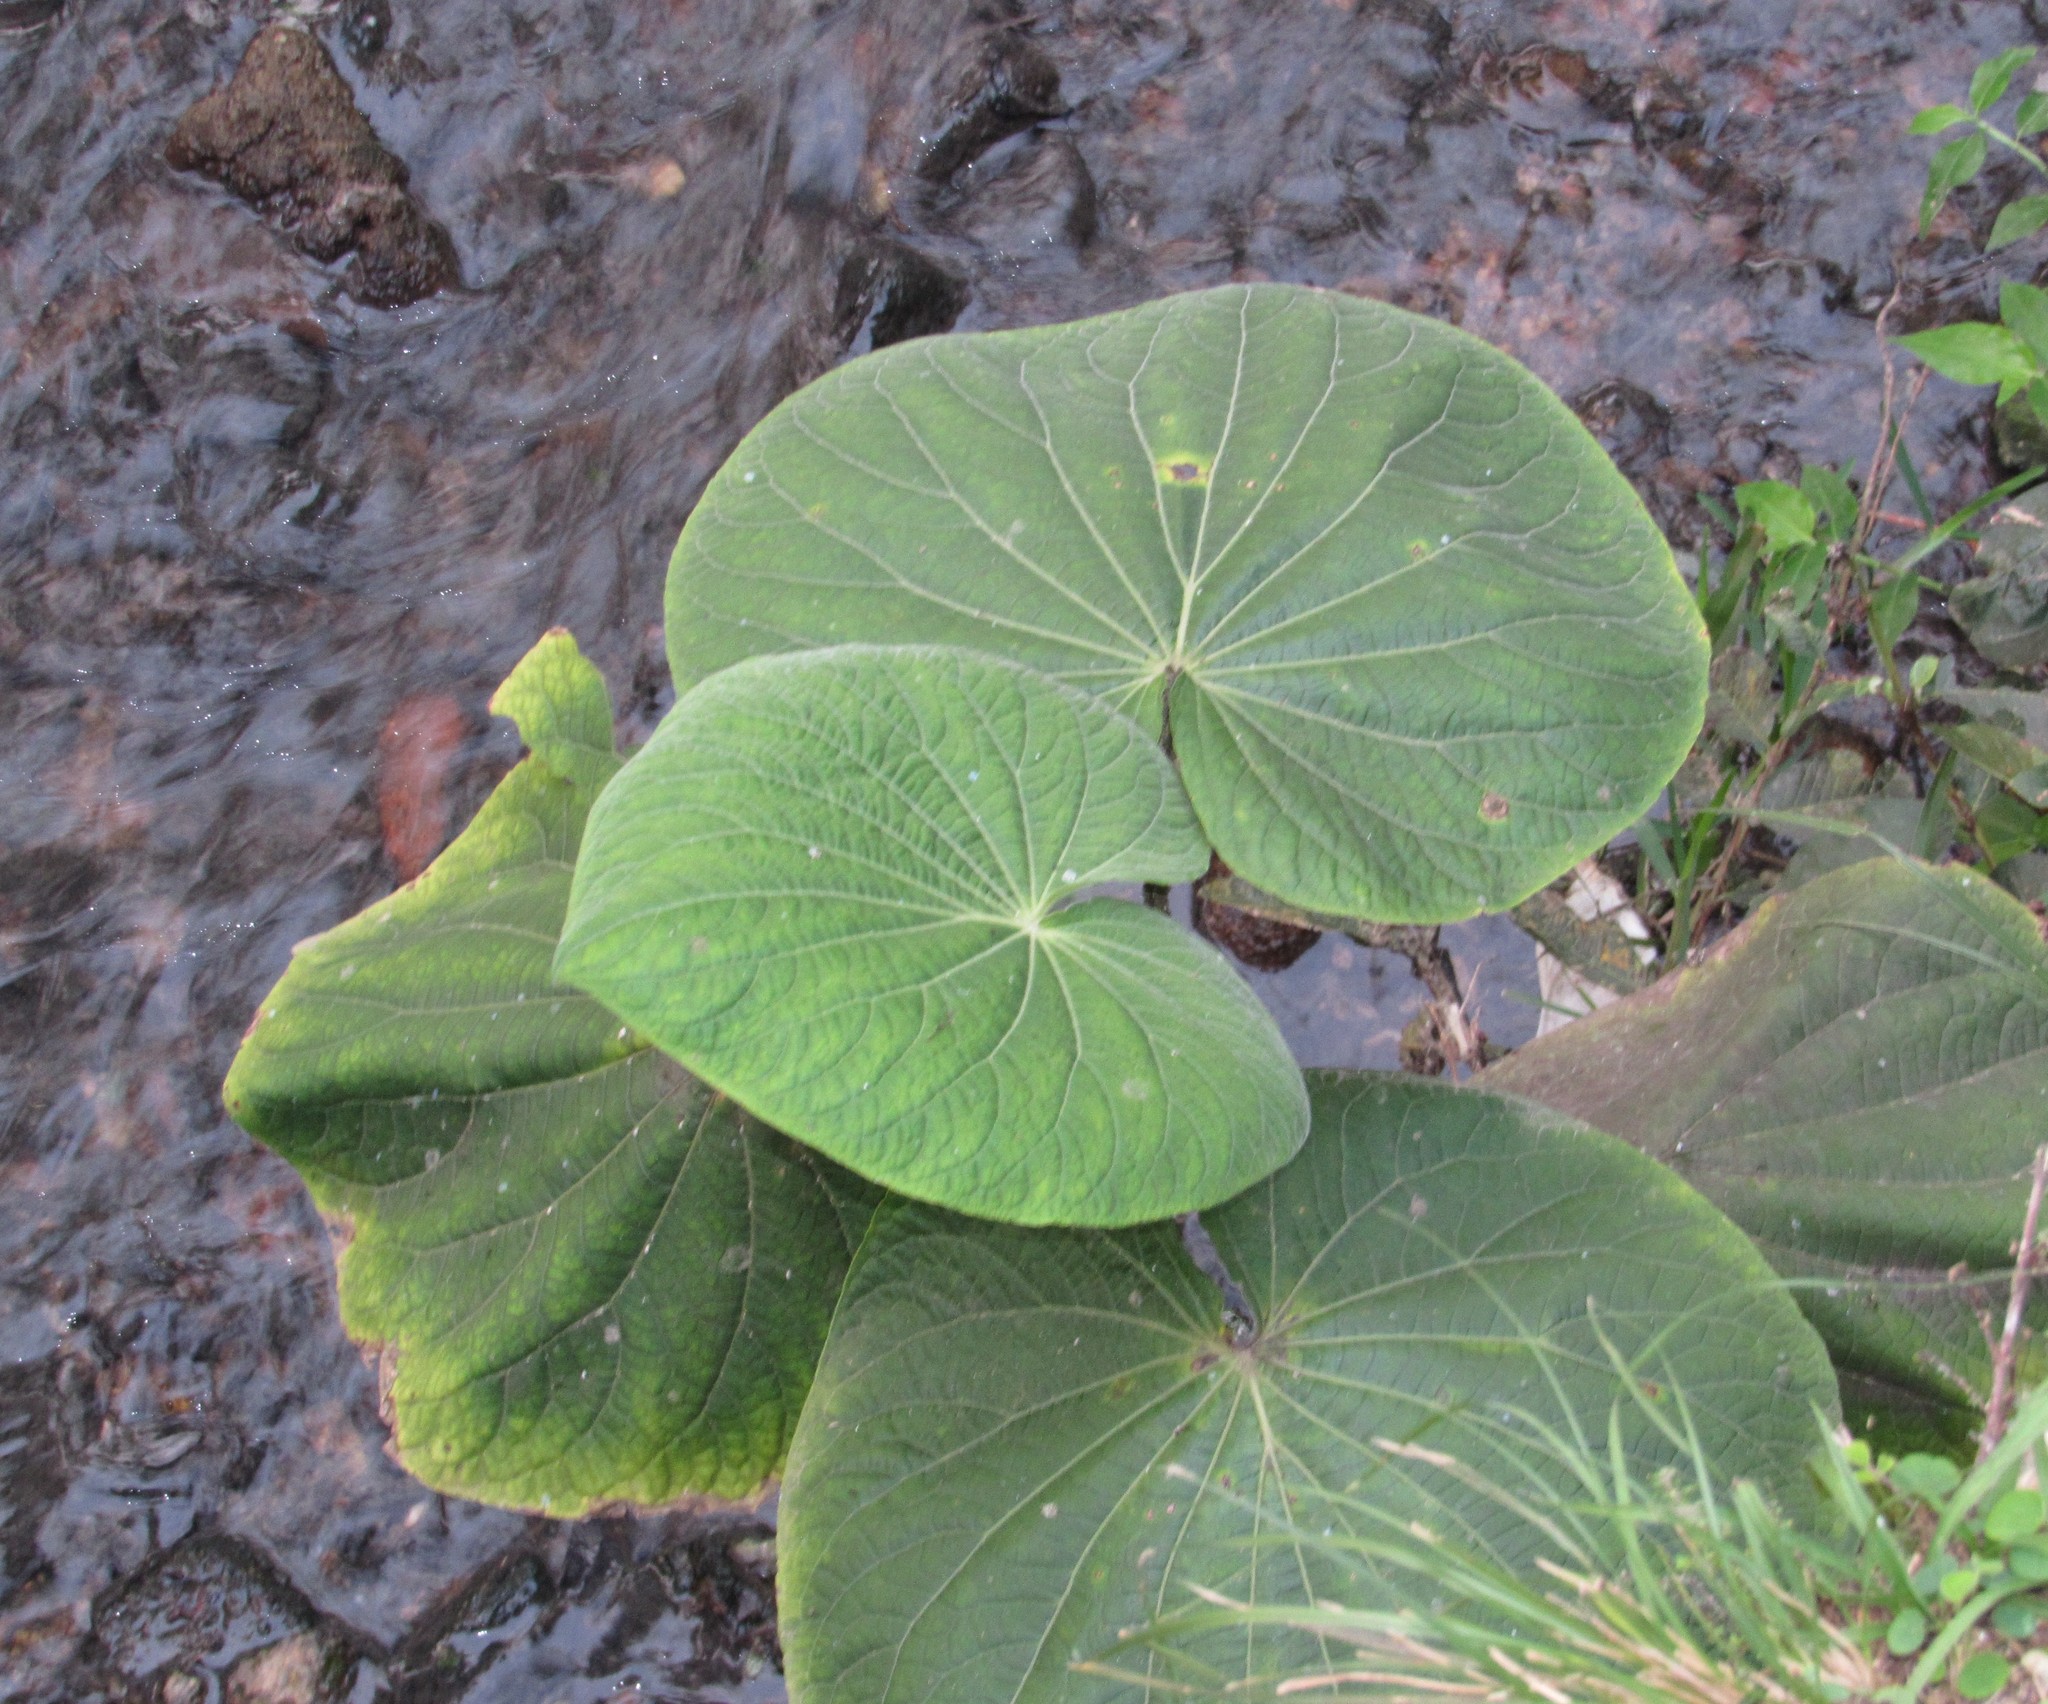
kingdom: Plantae
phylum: Tracheophyta
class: Magnoliopsida
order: Piperales
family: Piperaceae
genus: Piper
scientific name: Piper umbellatum
